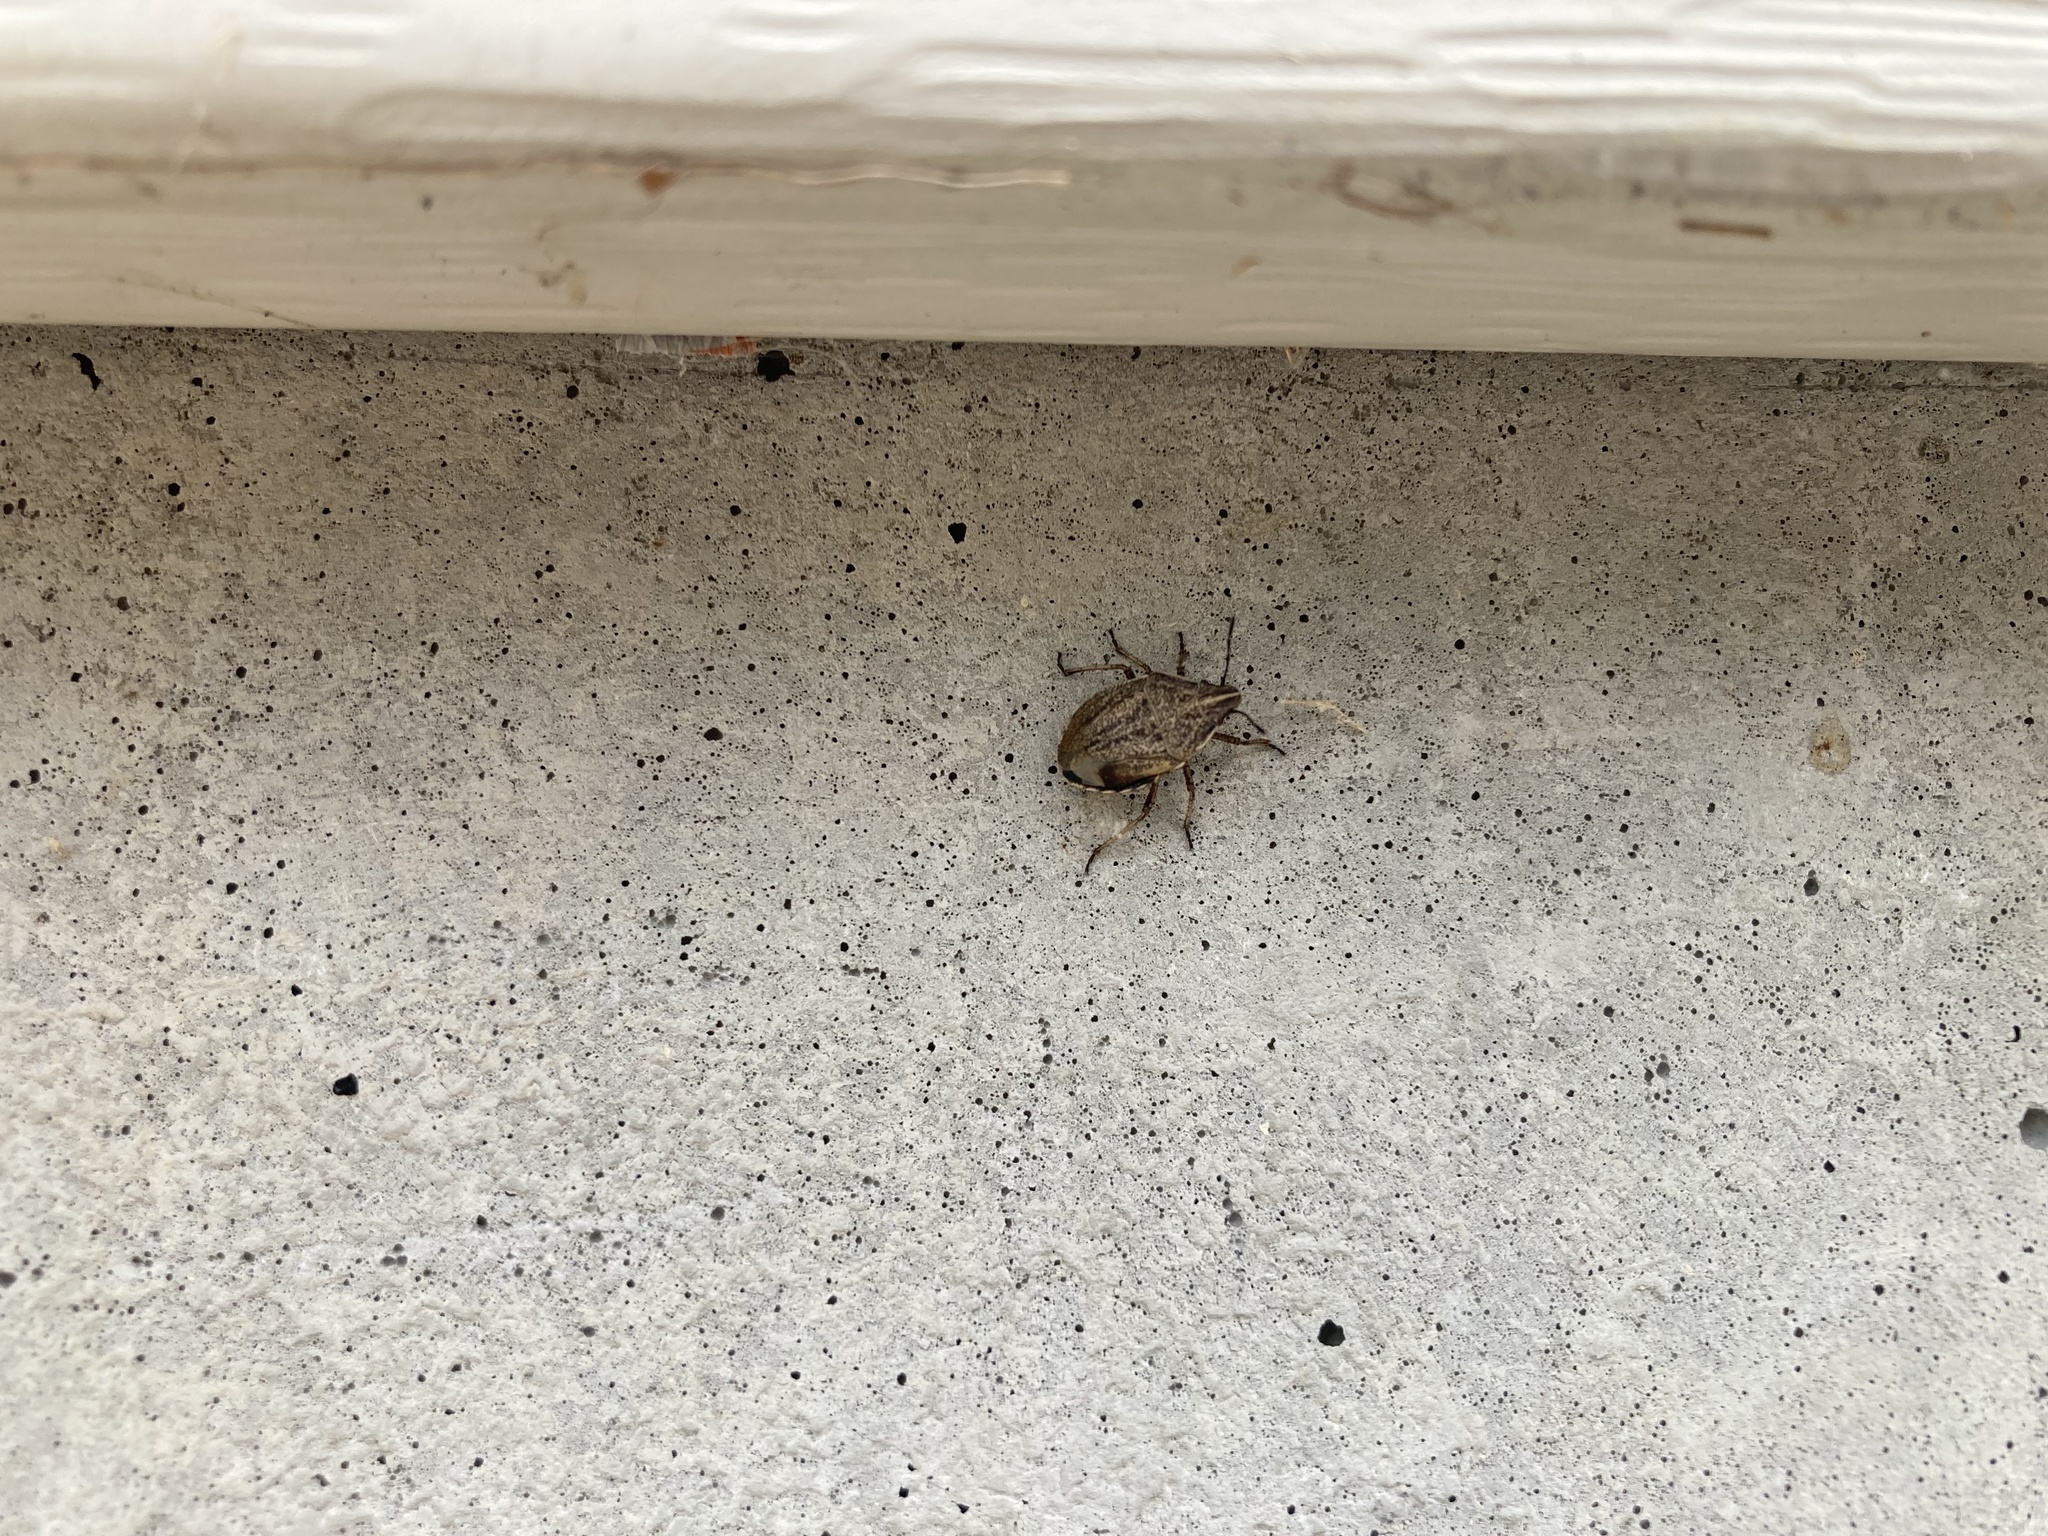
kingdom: Animalia
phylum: Arthropoda
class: Insecta
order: Hemiptera
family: Pentatomidae
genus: Coenus
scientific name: Coenus delius
